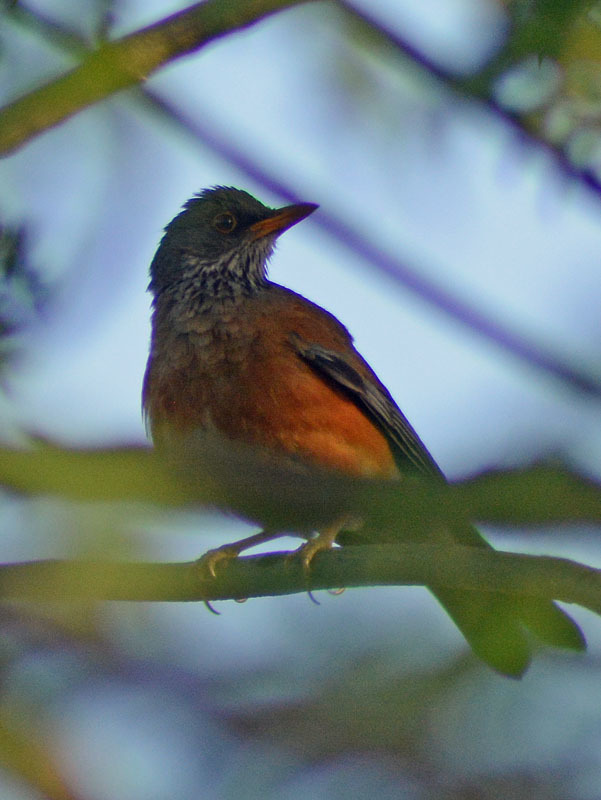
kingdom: Animalia
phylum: Chordata
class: Aves
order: Passeriformes
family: Turdidae
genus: Turdus
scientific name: Turdus rufopalliatus
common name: Rufous-backed robin
